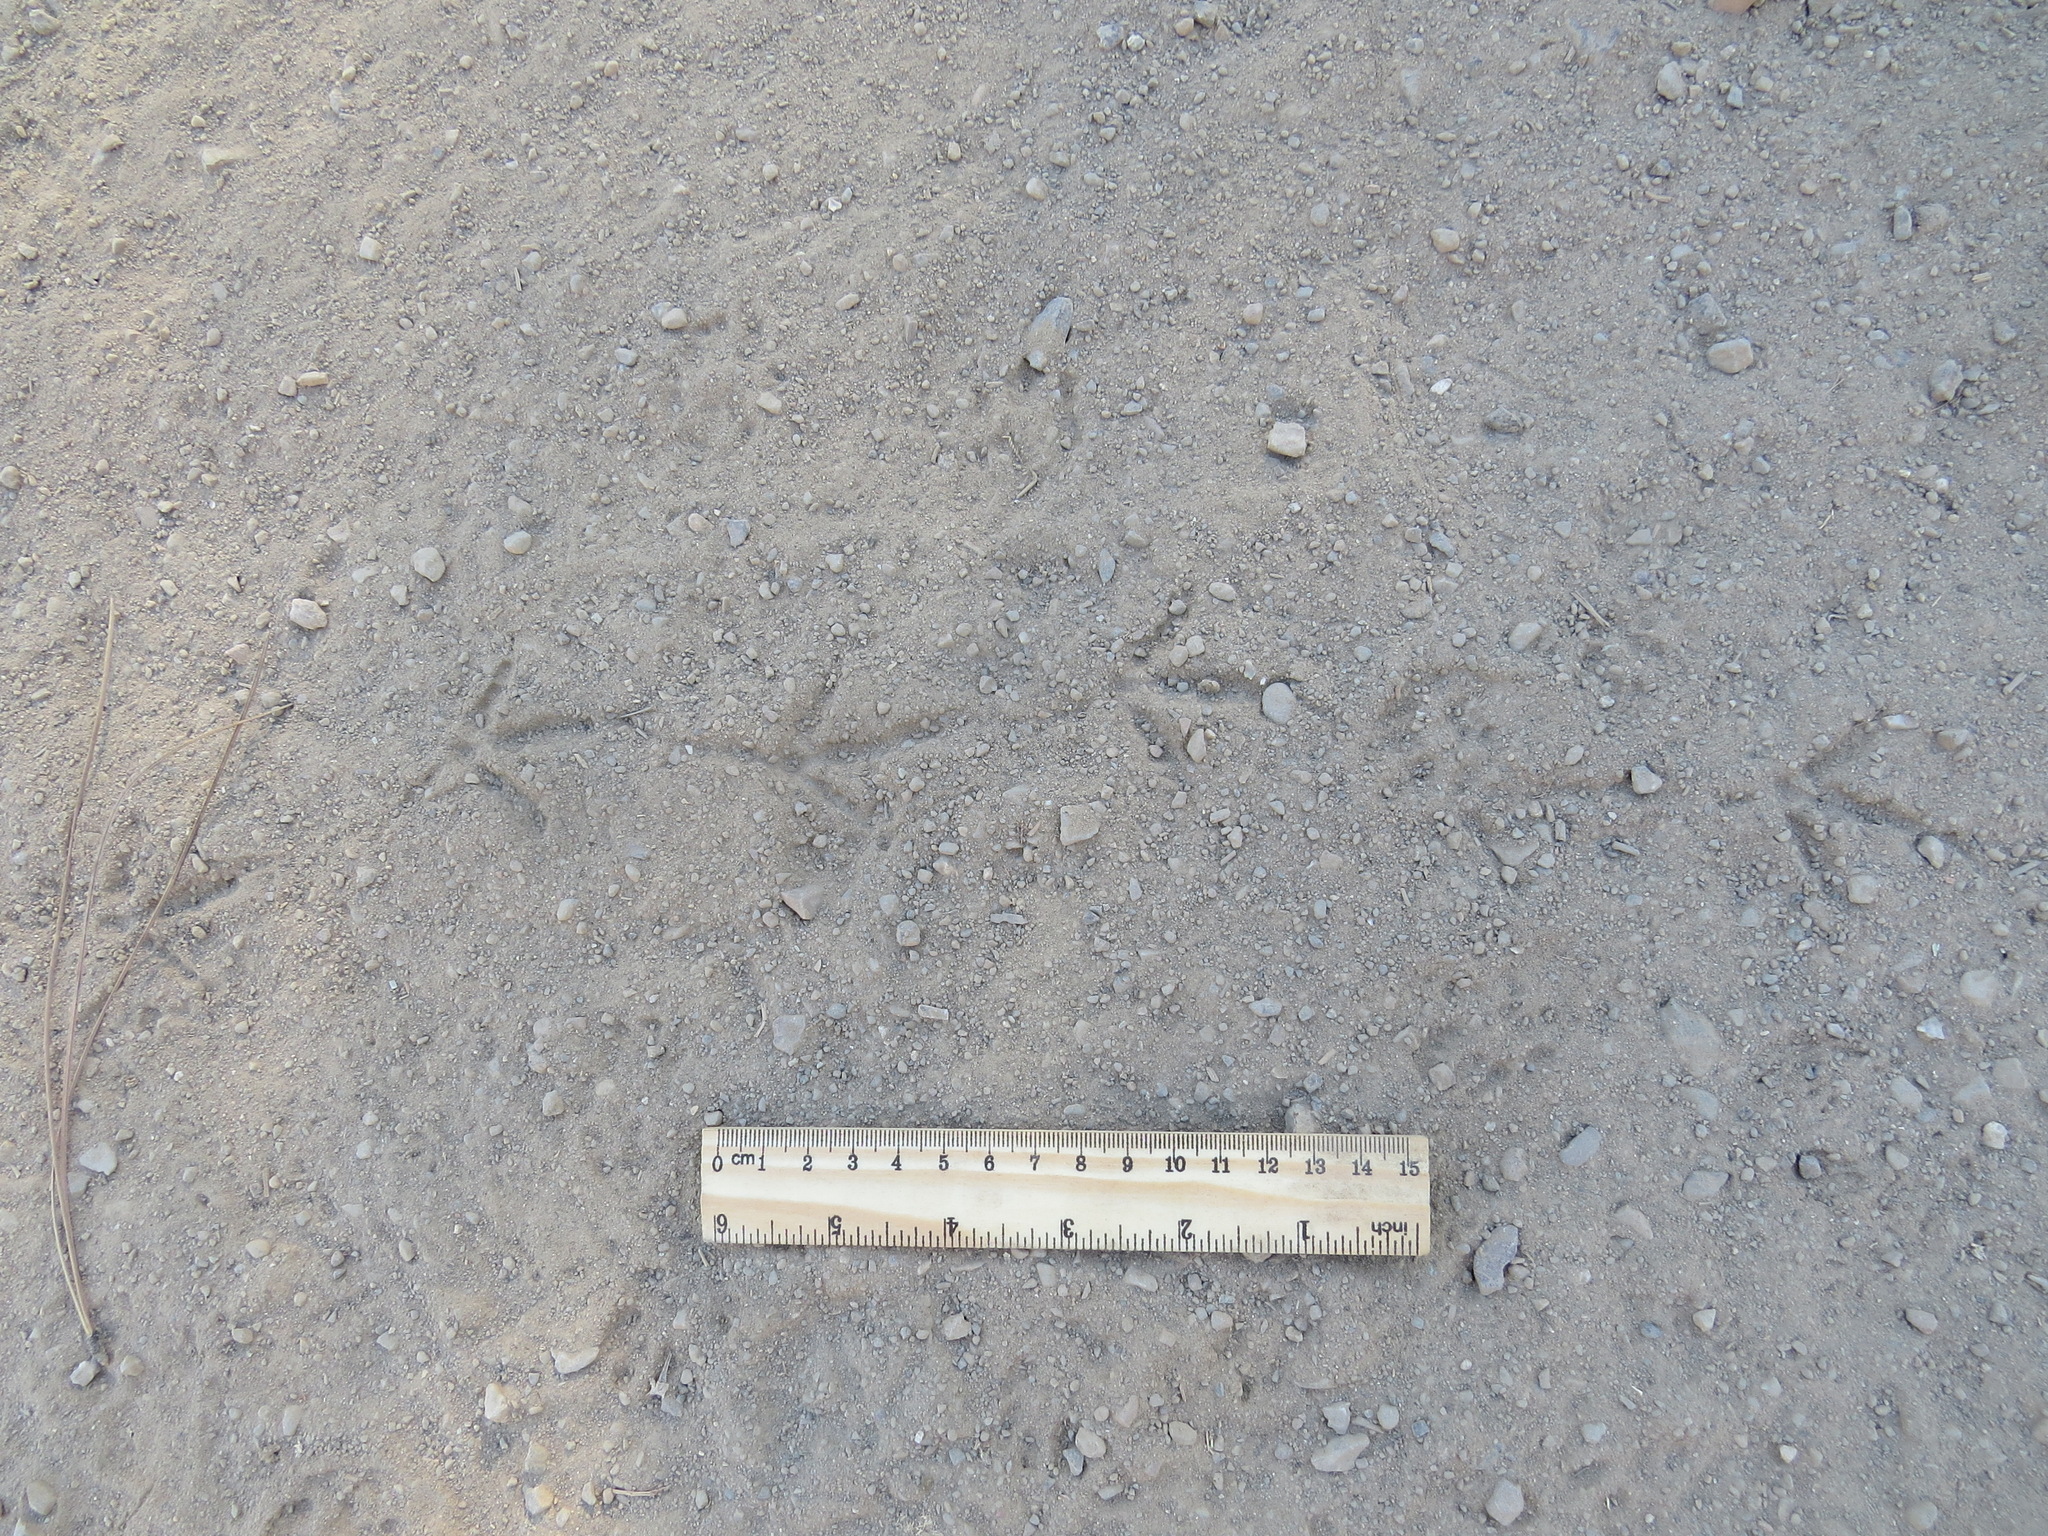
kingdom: Animalia
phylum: Chordata
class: Aves
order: Galliformes
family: Odontophoridae
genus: Callipepla
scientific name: Callipepla californica
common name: California quail
